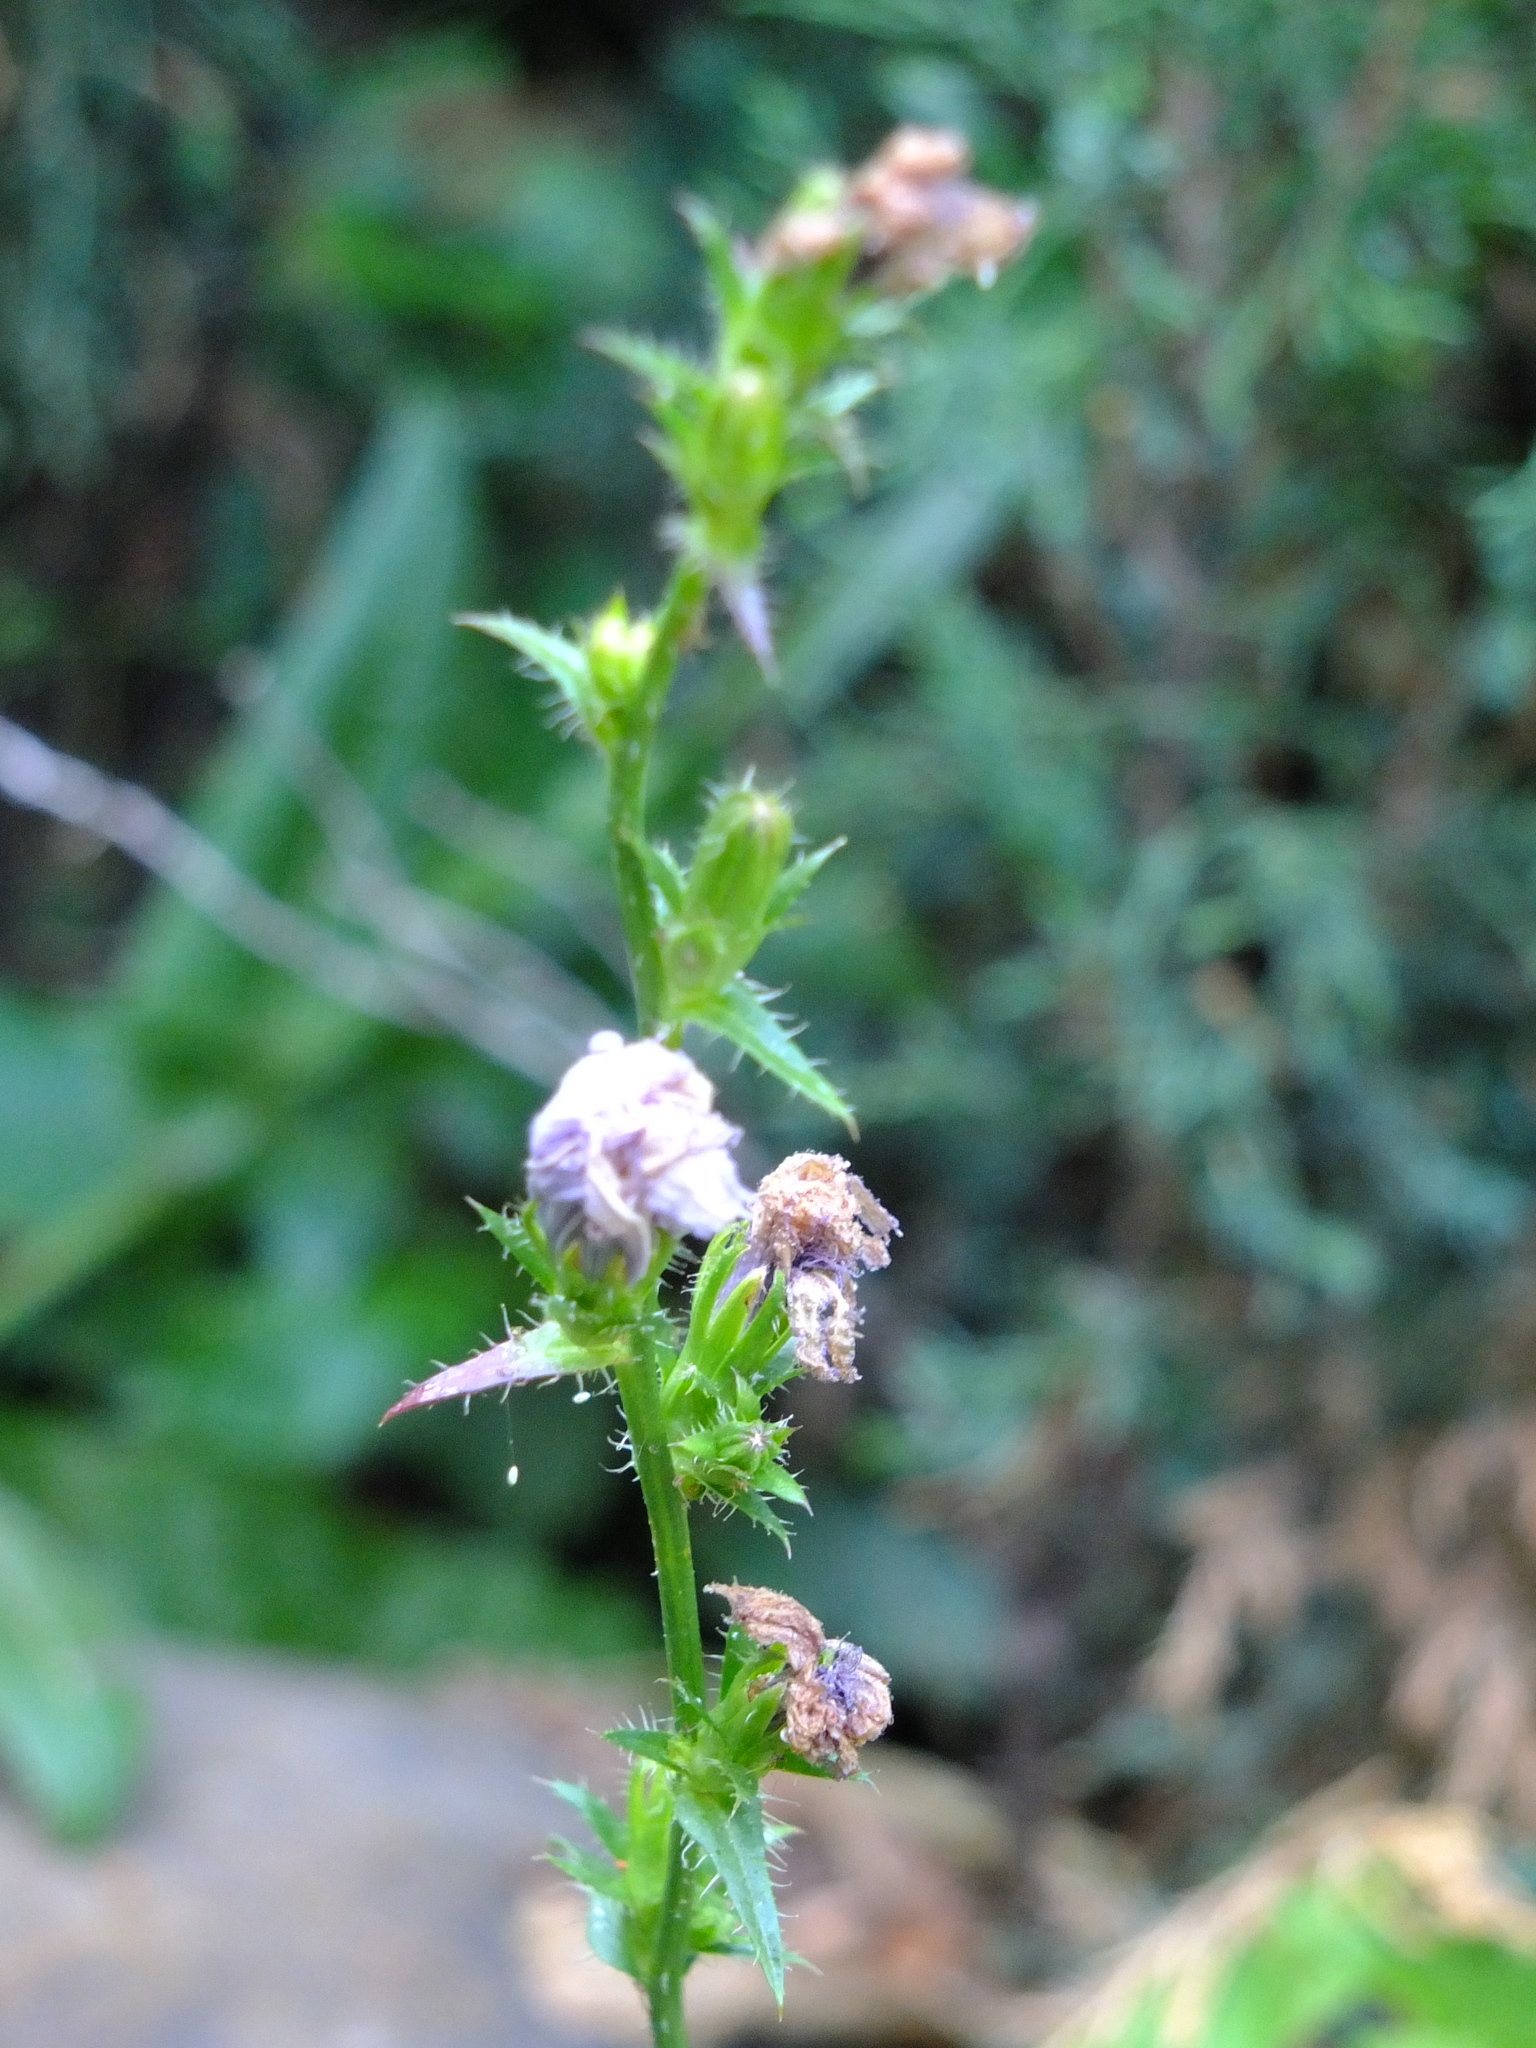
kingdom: Plantae
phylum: Tracheophyta
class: Magnoliopsida
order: Asterales
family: Asteraceae
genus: Cichorium
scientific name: Cichorium intybus
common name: Chicory
